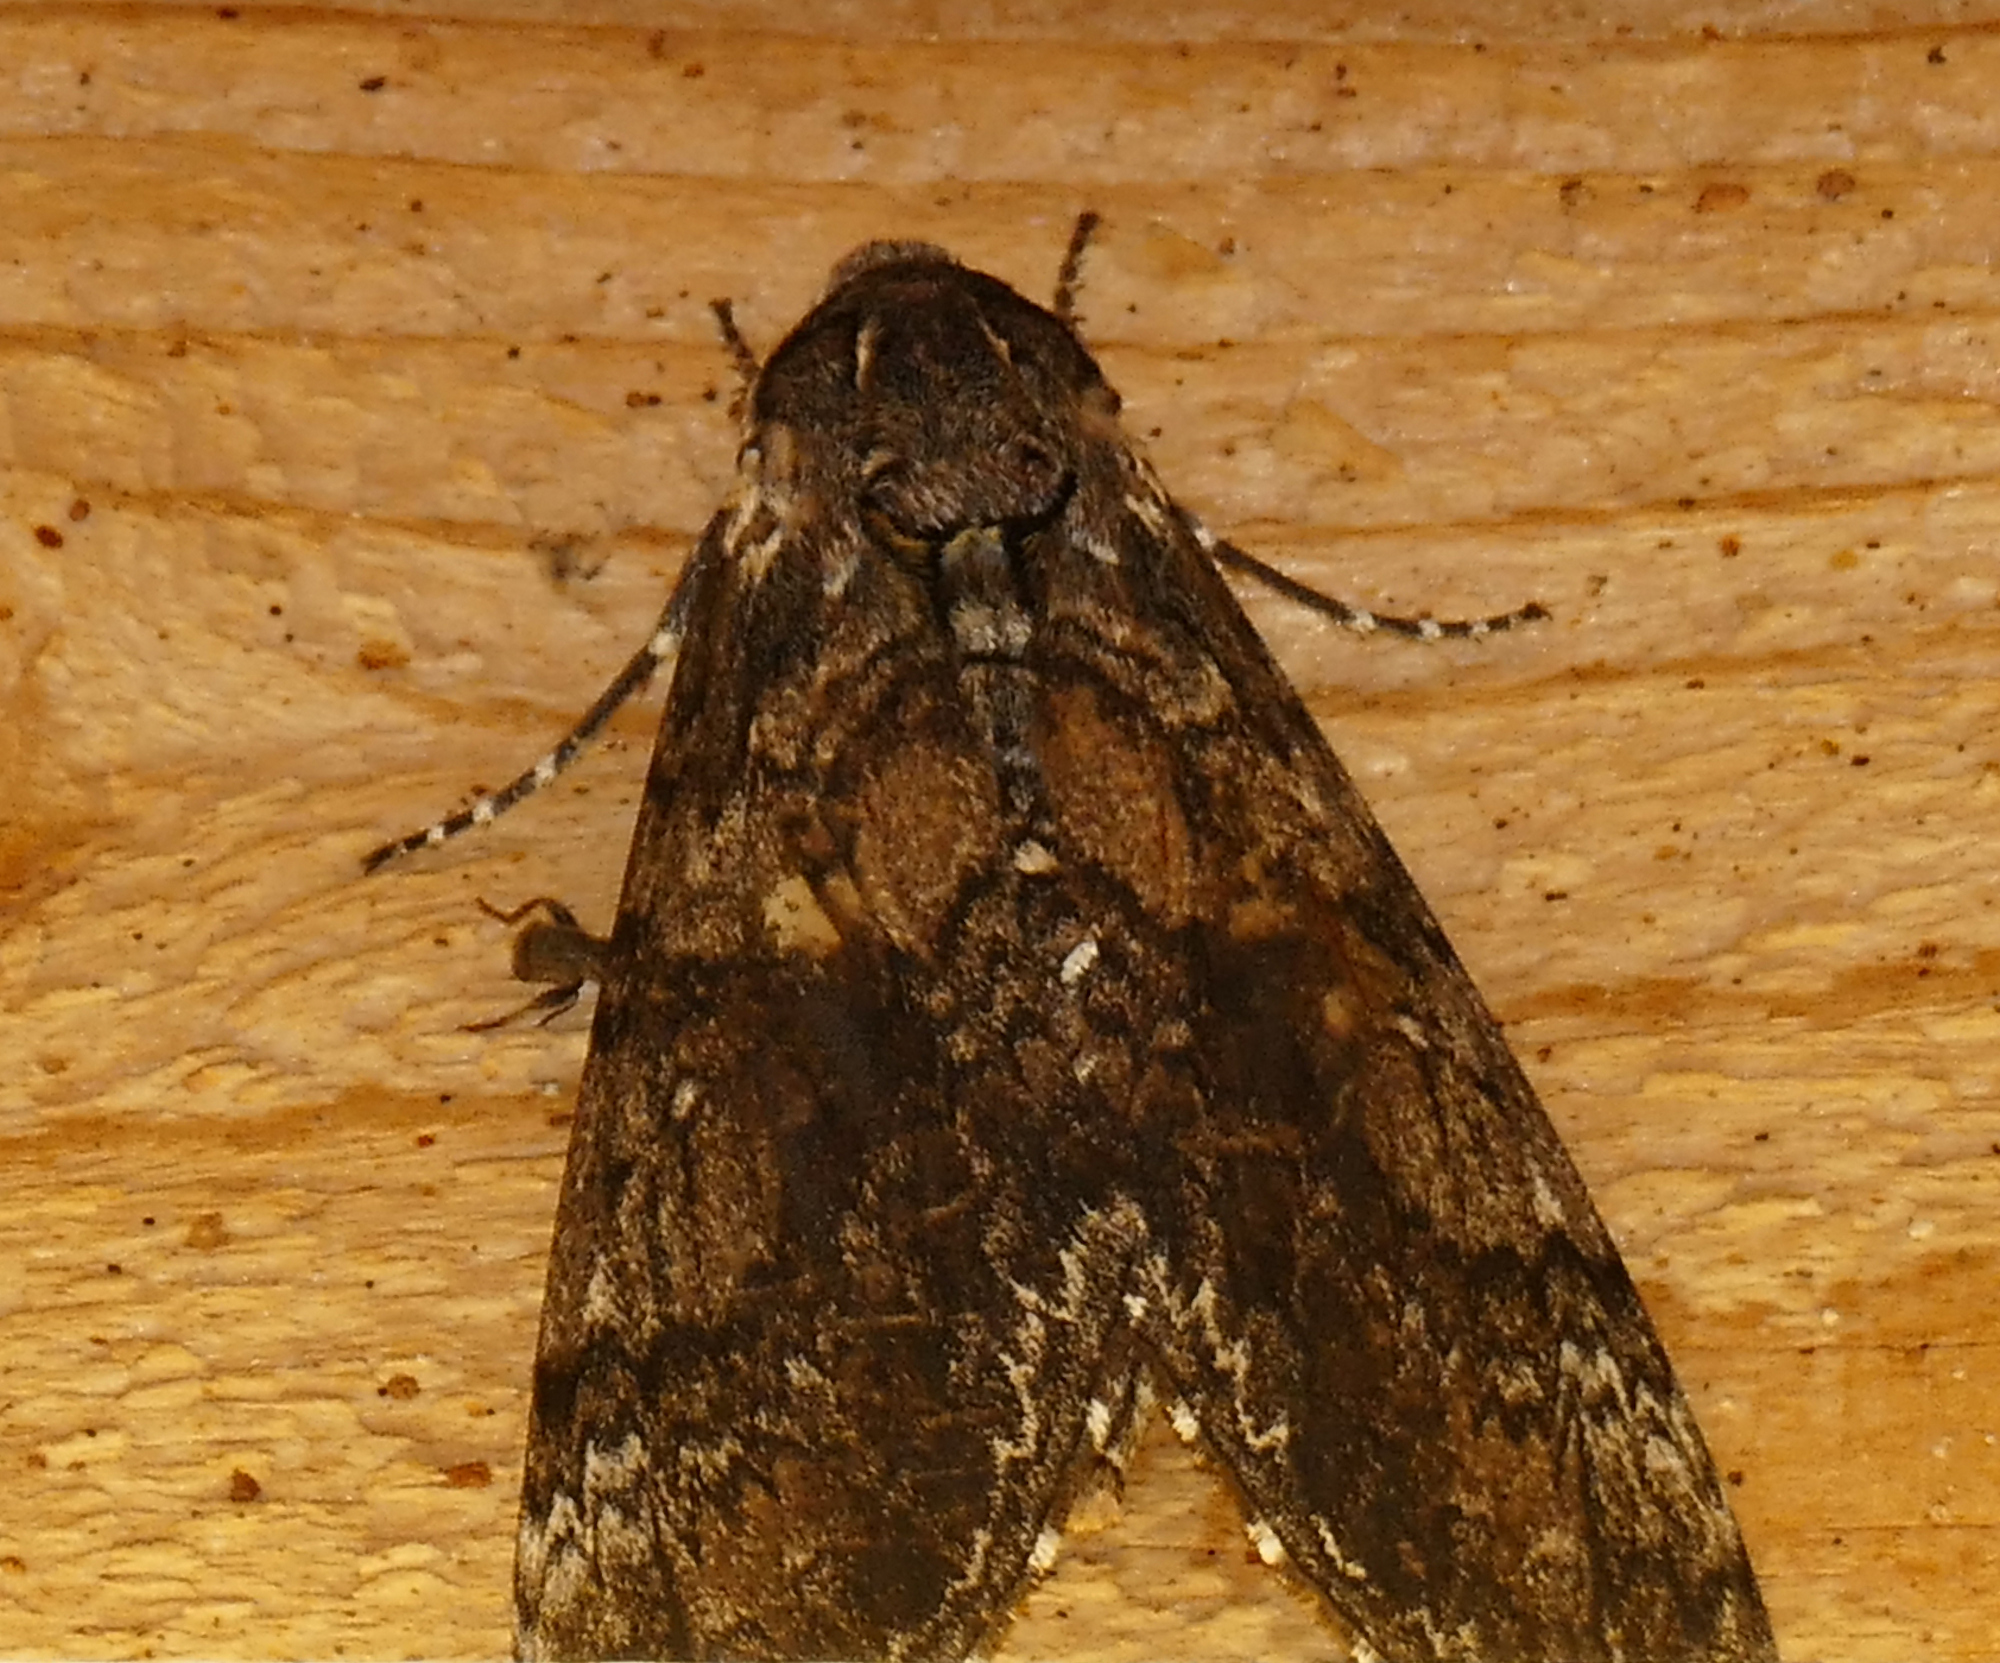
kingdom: Animalia
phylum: Arthropoda
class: Insecta
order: Lepidoptera
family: Sphingidae
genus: Manduca
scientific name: Manduca sexta
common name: Carolina sphinx
